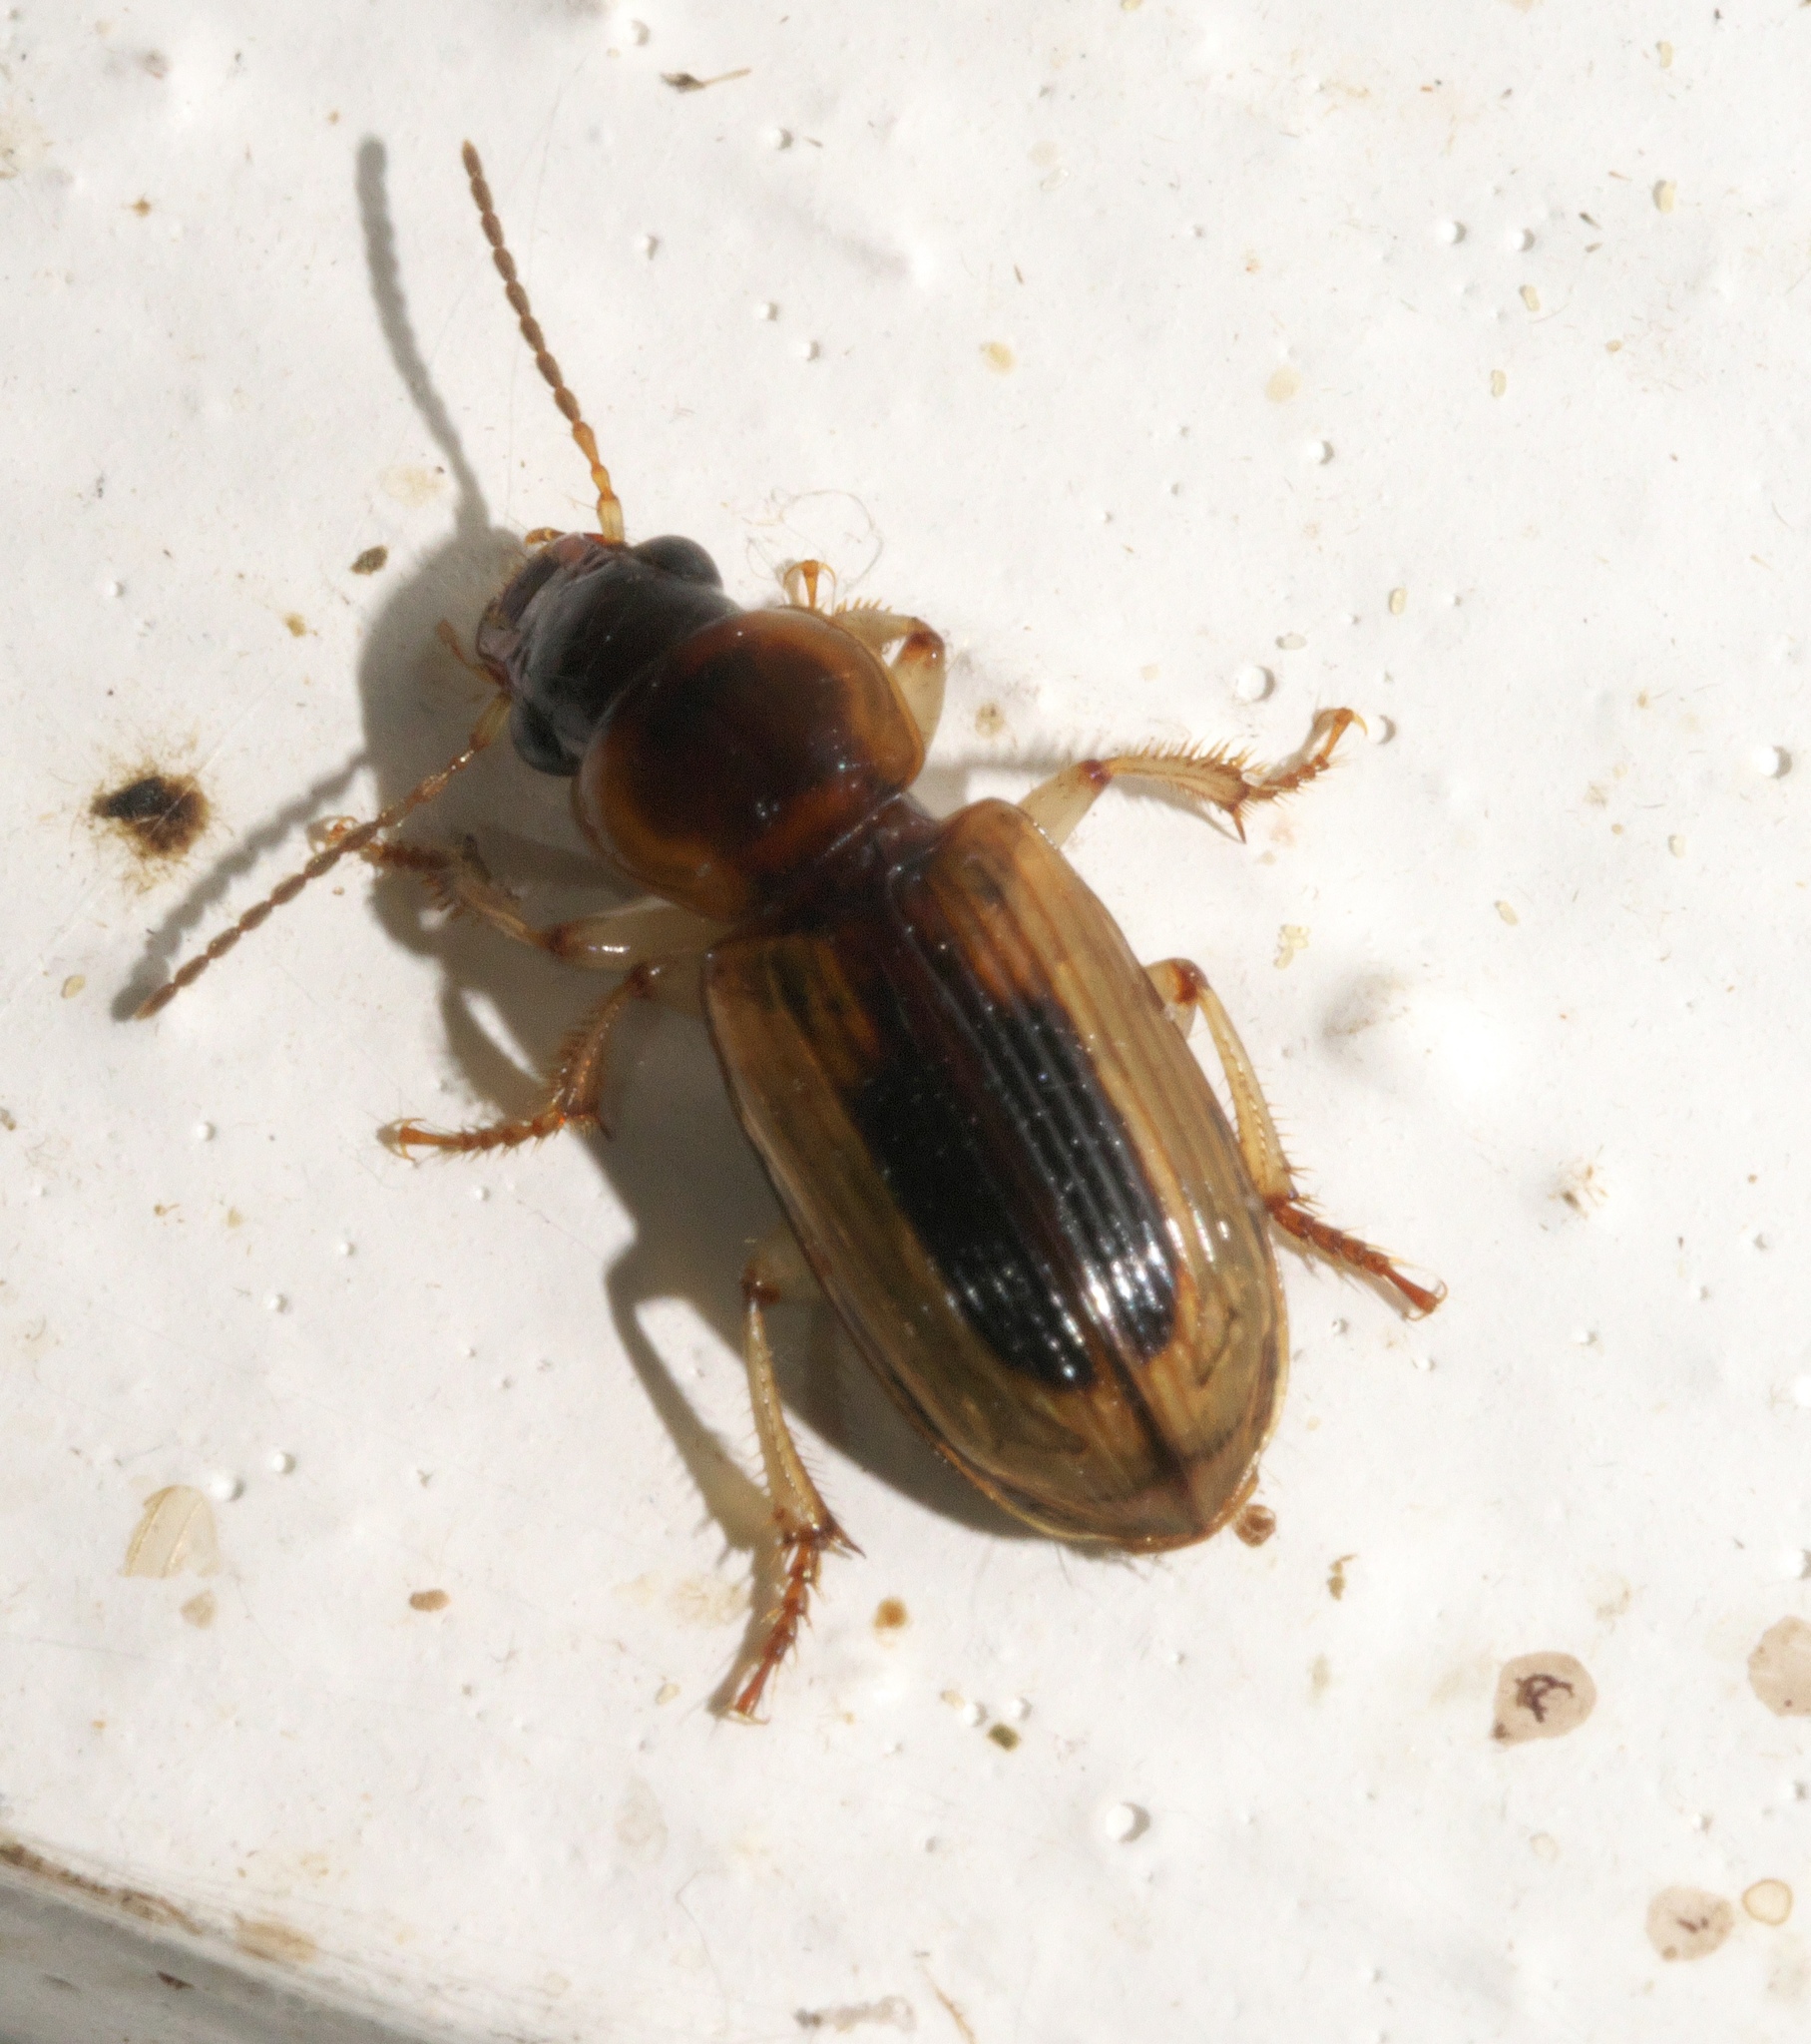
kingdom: Animalia
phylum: Arthropoda
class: Insecta
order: Coleoptera
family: Carabidae
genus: Stenolophus
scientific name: Stenolophus lecontei
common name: Leconte's seedcorn beetle
